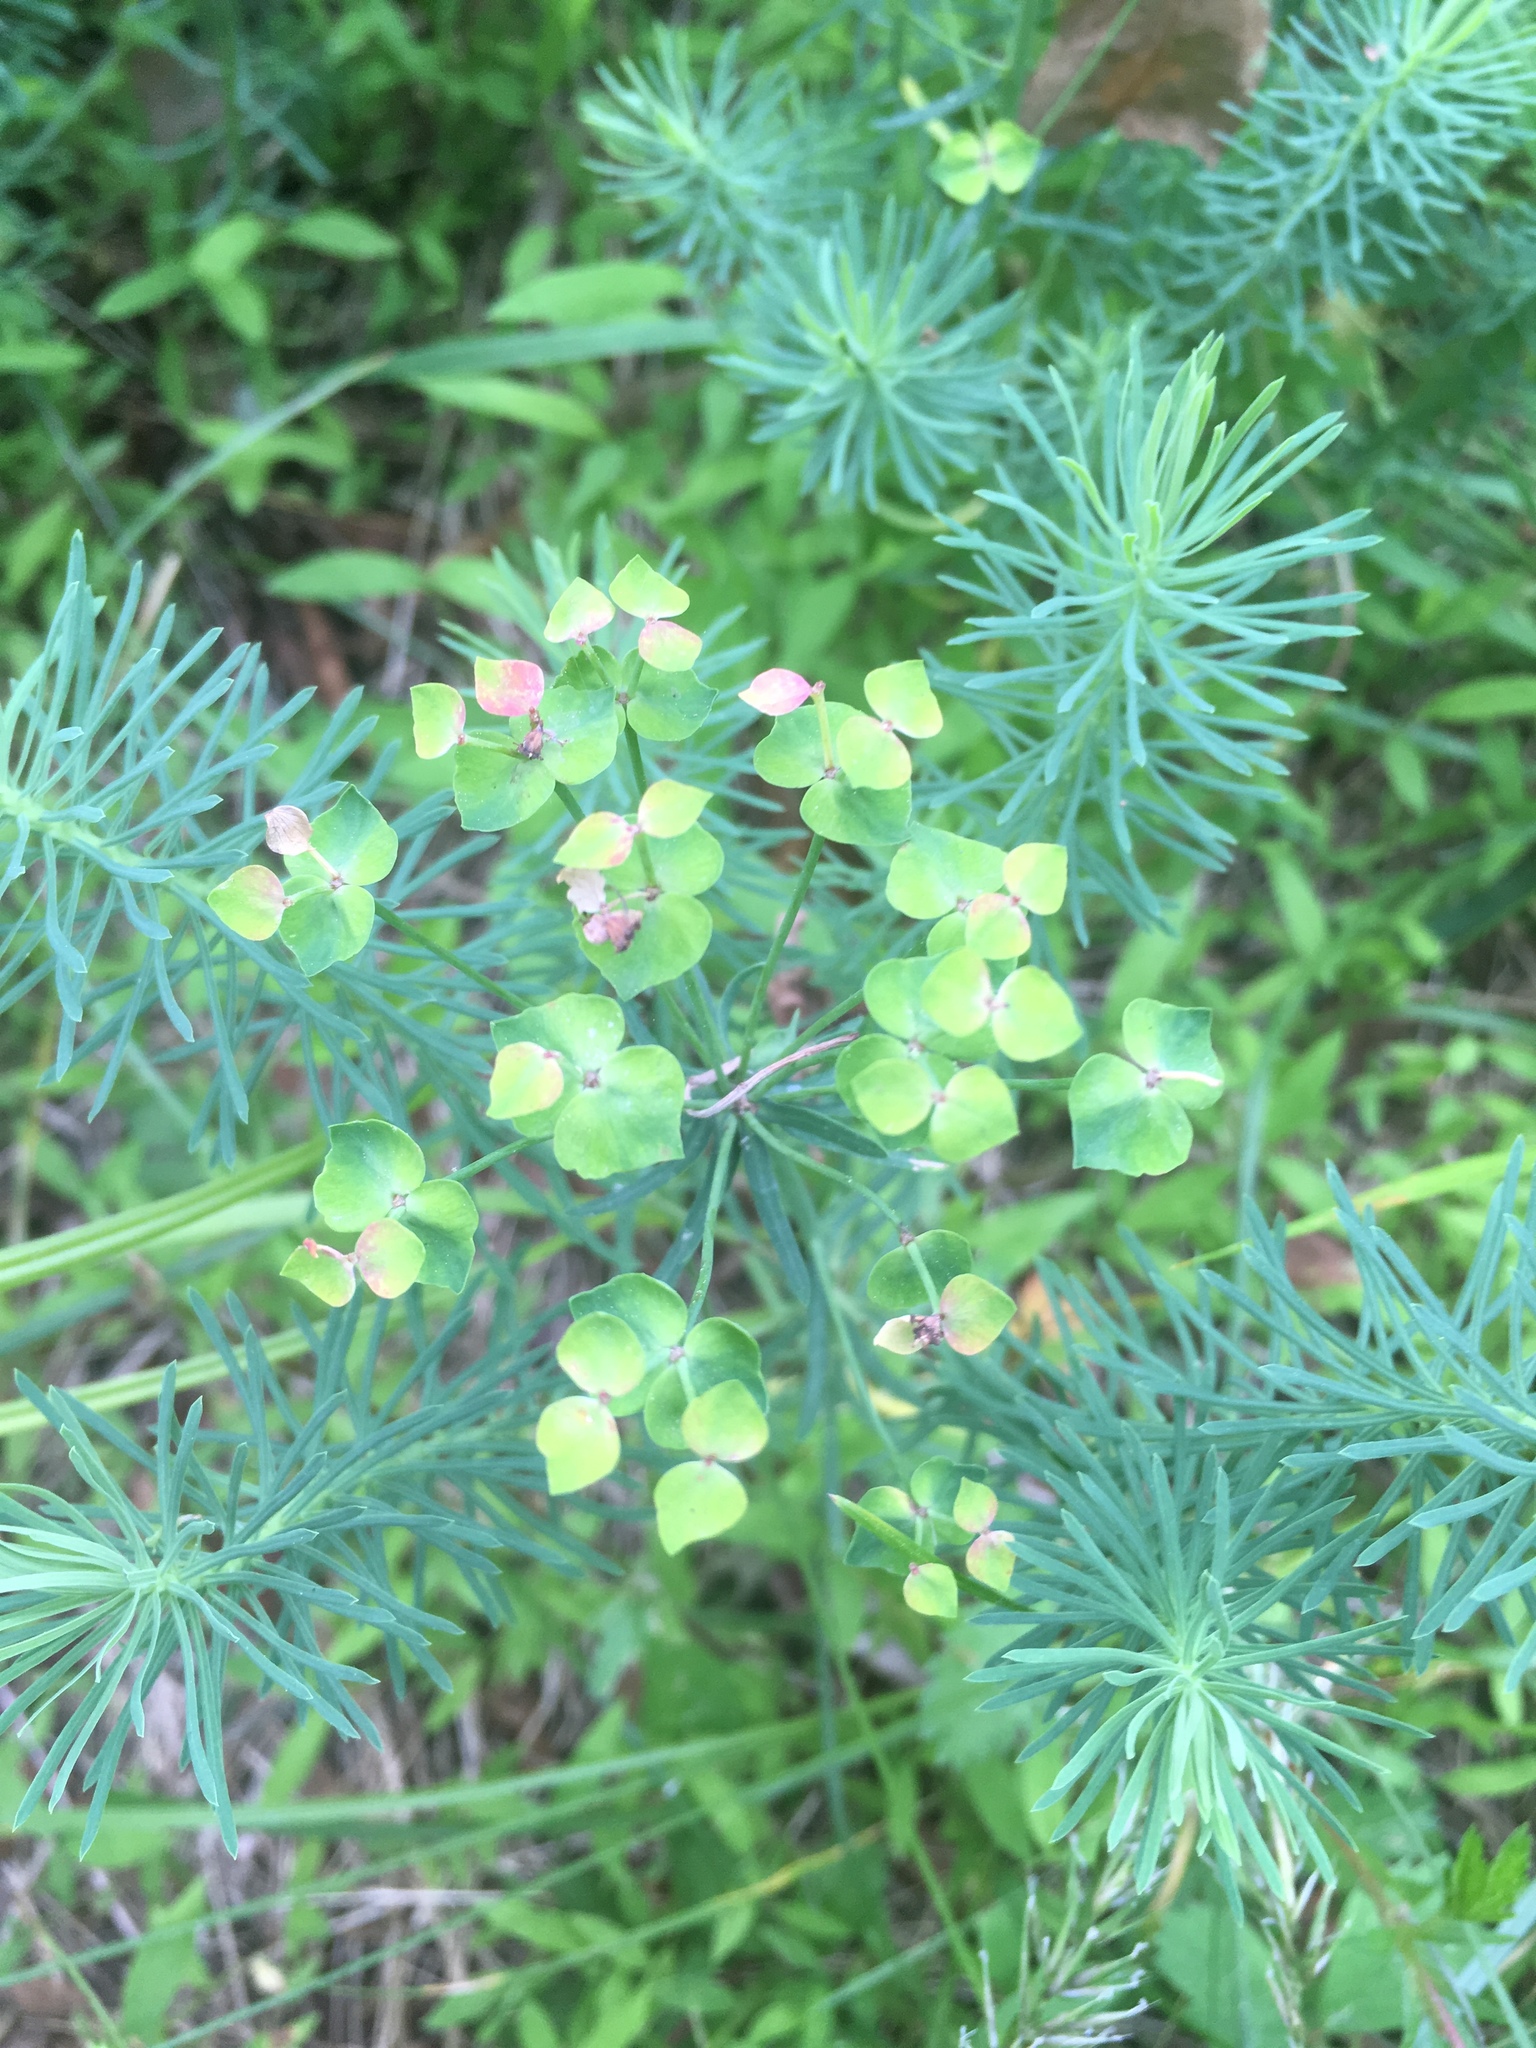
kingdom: Plantae
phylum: Tracheophyta
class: Magnoliopsida
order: Malpighiales
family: Euphorbiaceae
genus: Euphorbia
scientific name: Euphorbia cyparissias
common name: Cypress spurge
